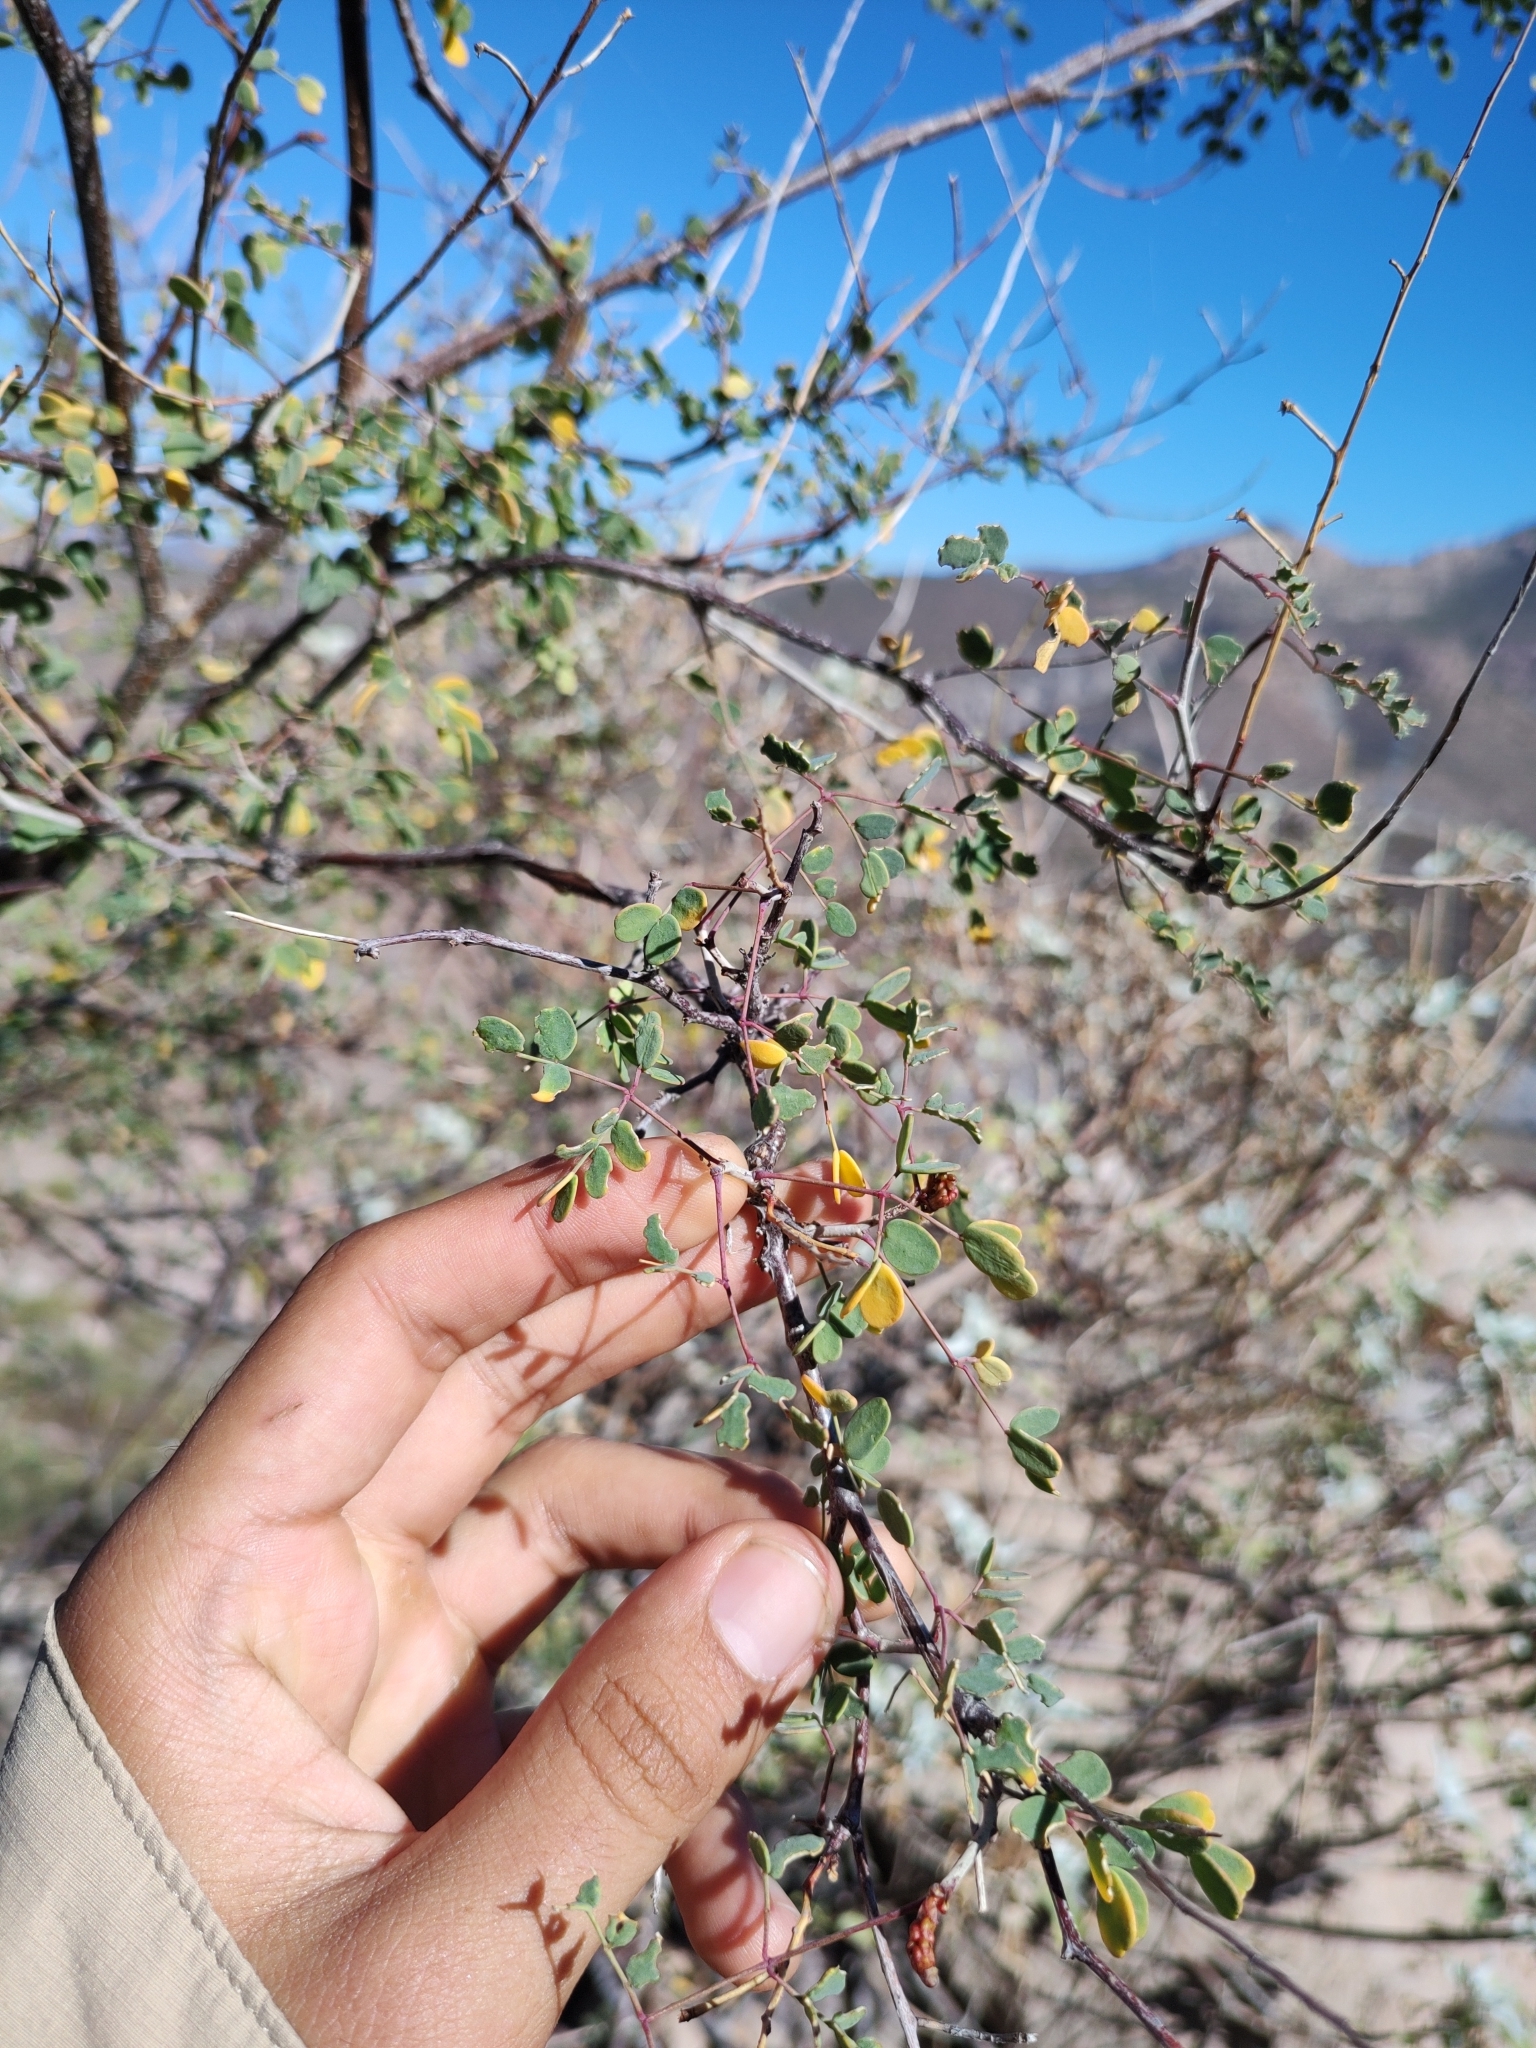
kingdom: Plantae
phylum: Tracheophyta
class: Magnoliopsida
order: Fabales
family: Fabaceae
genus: Erythrostemon
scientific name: Erythrostemon pannosus
